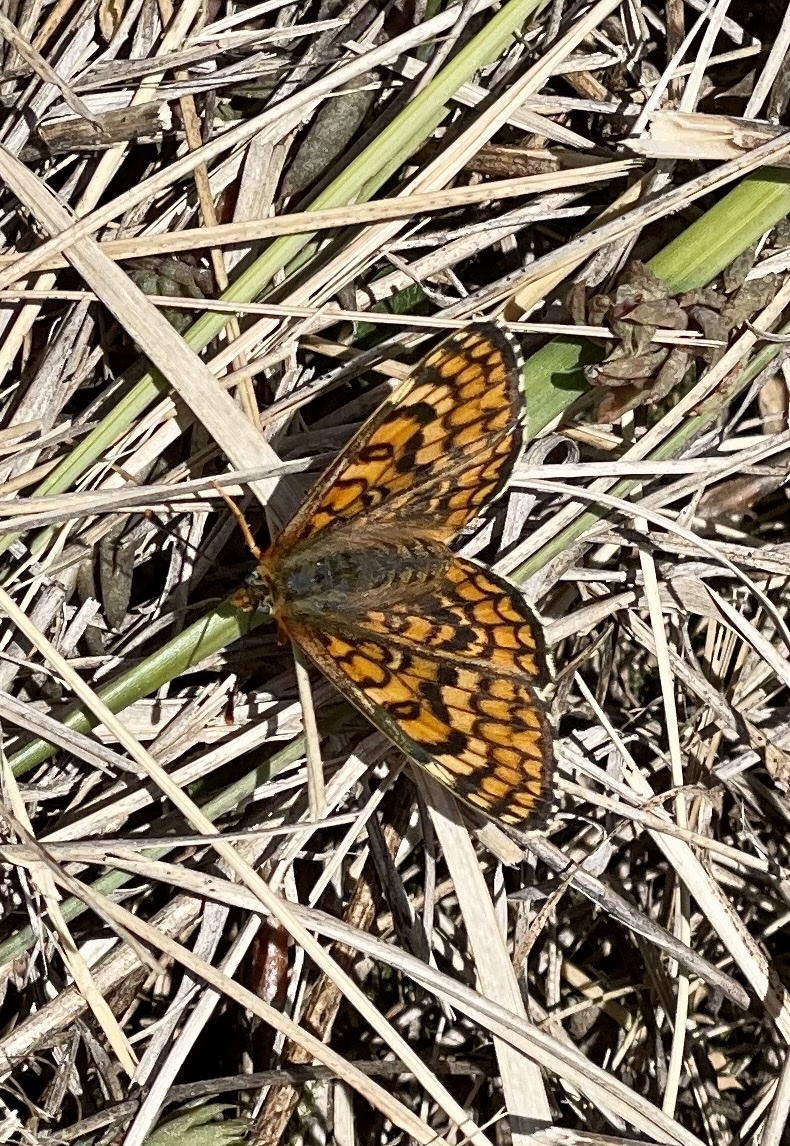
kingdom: Animalia
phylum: Arthropoda
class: Insecta
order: Lepidoptera
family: Nymphalidae
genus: Melitaea
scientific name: Melitaea deione
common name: Provençal fritillary
